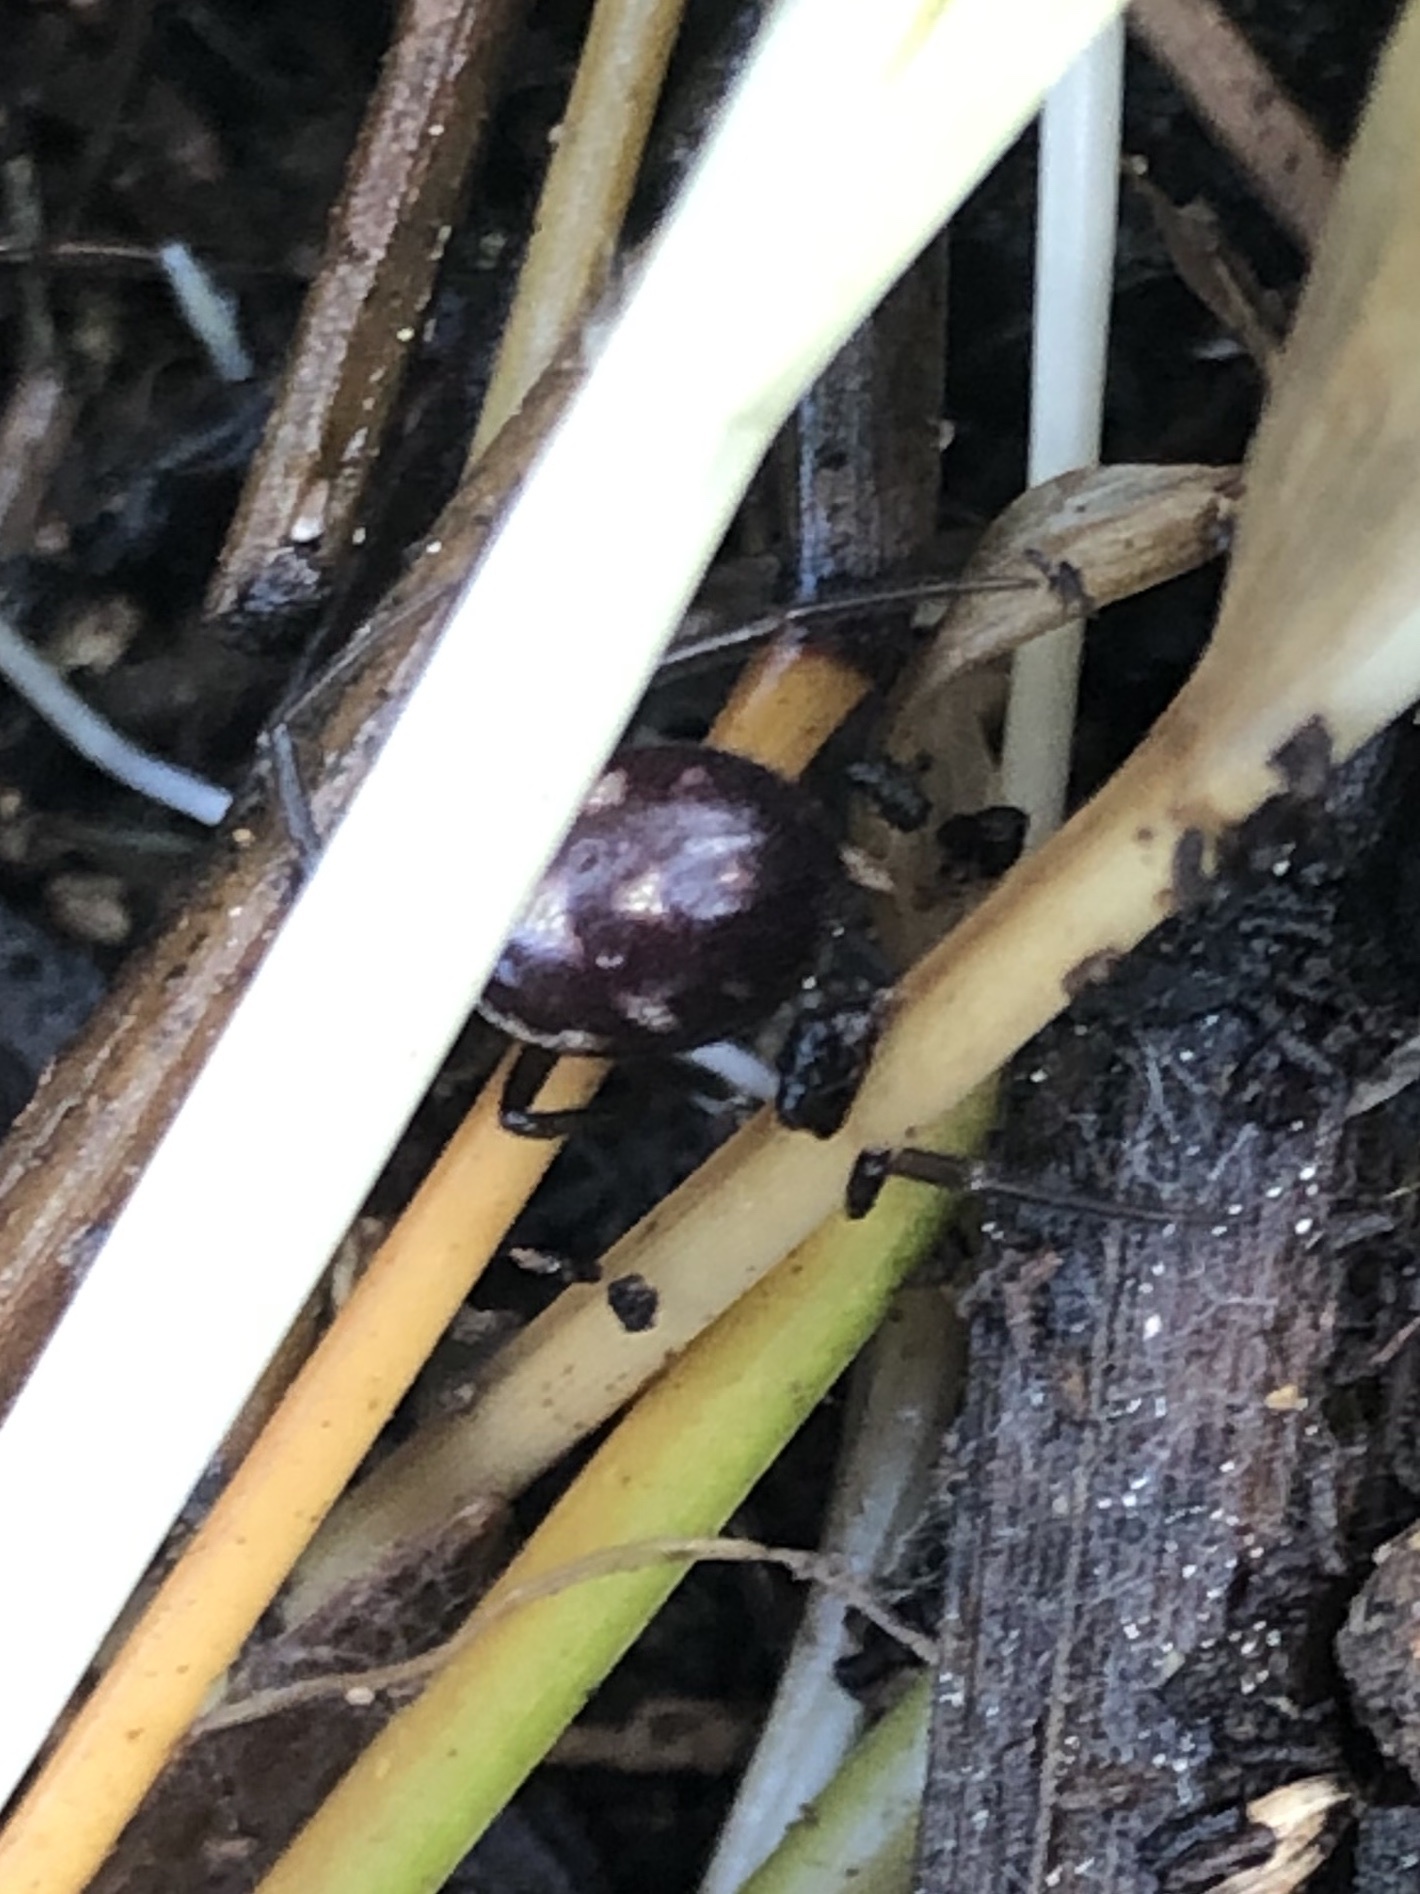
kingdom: Animalia
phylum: Arthropoda
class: Arachnida
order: Araneae
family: Theridiidae
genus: Steatoda
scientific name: Steatoda grossa
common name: False black widow
